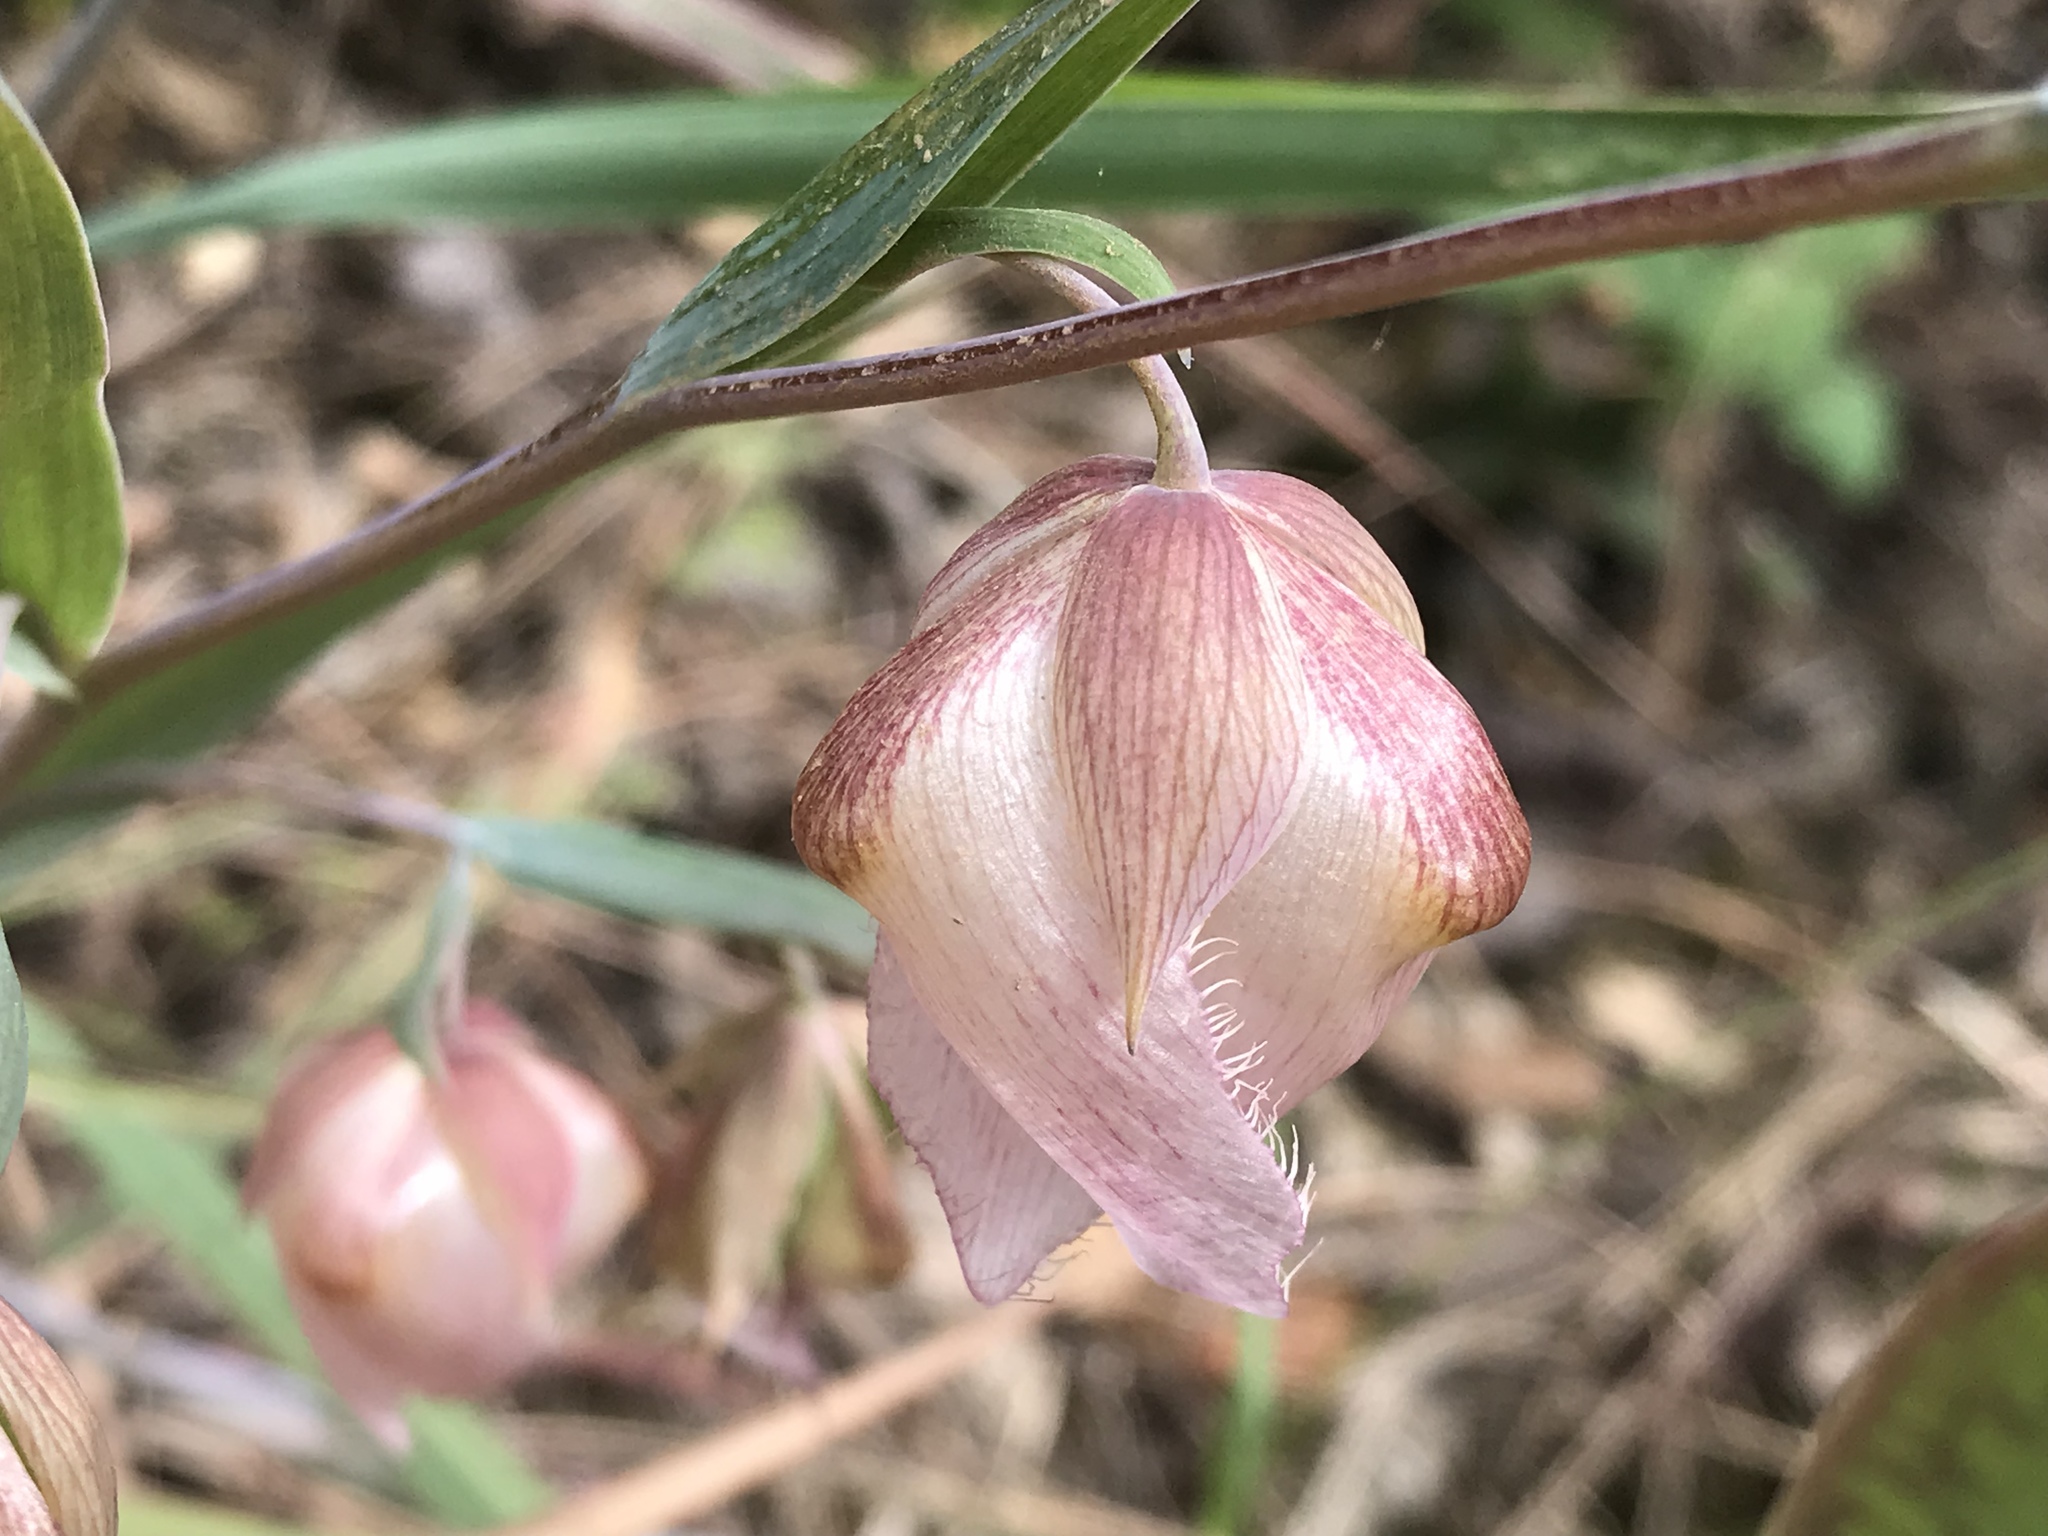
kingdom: Plantae
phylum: Tracheophyta
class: Liliopsida
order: Liliales
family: Liliaceae
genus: Calochortus
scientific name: Calochortus albus
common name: Fairy-lantern
